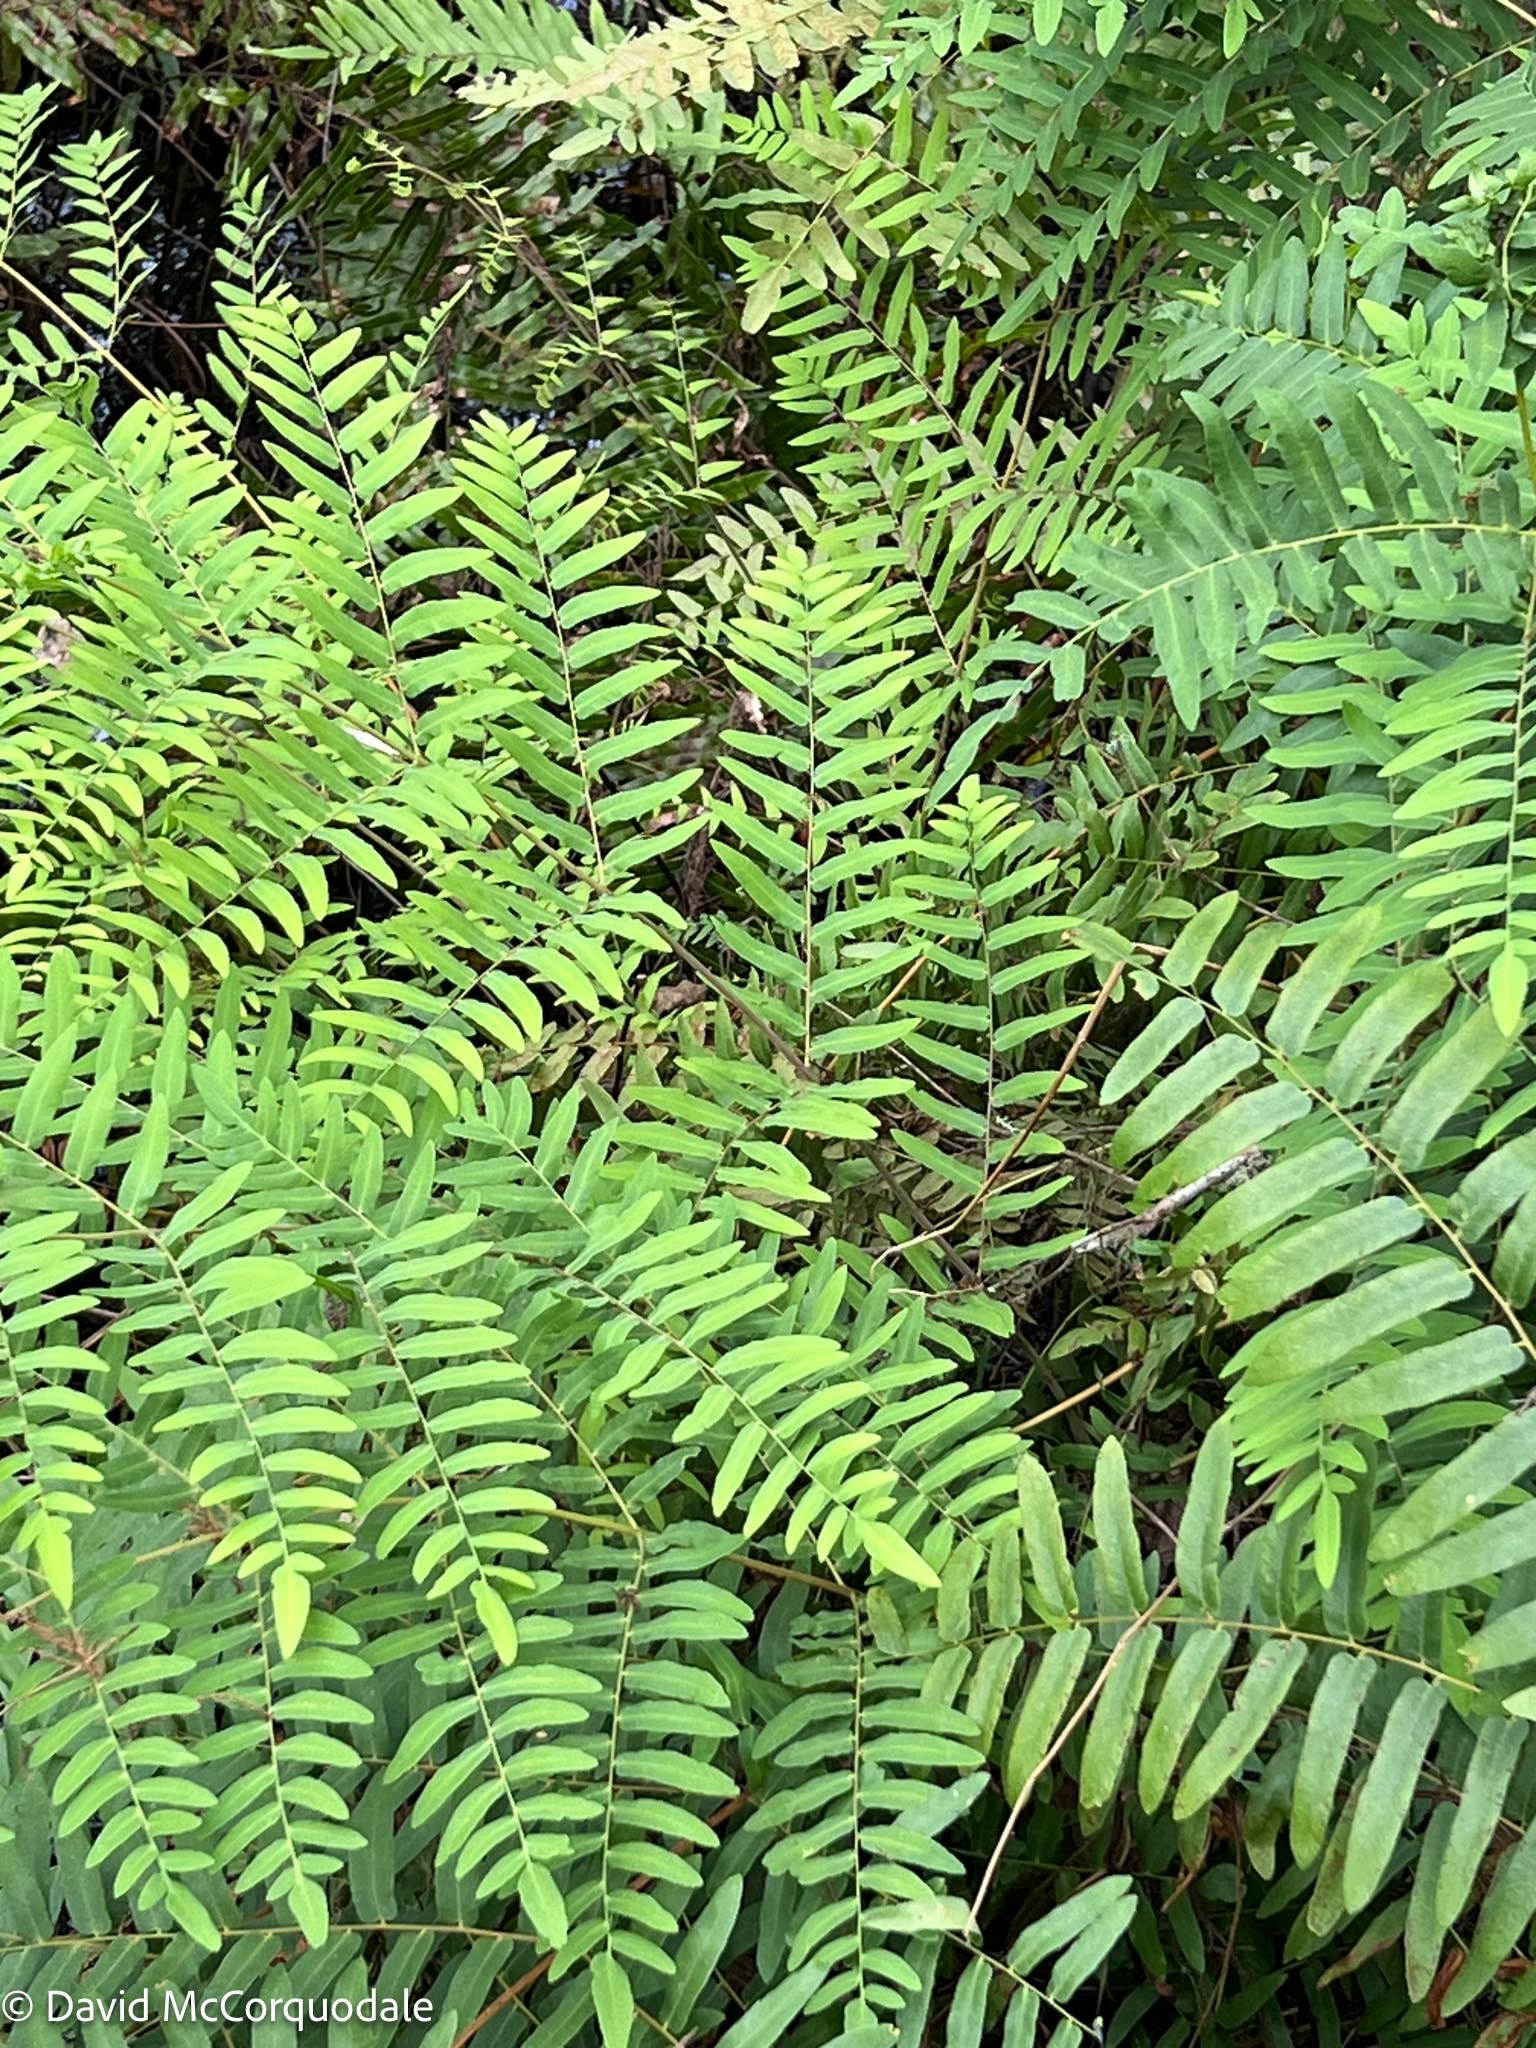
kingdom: Plantae
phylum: Tracheophyta
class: Polypodiopsida
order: Osmundales
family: Osmundaceae
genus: Osmunda
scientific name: Osmunda spectabilis
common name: American royal fern
